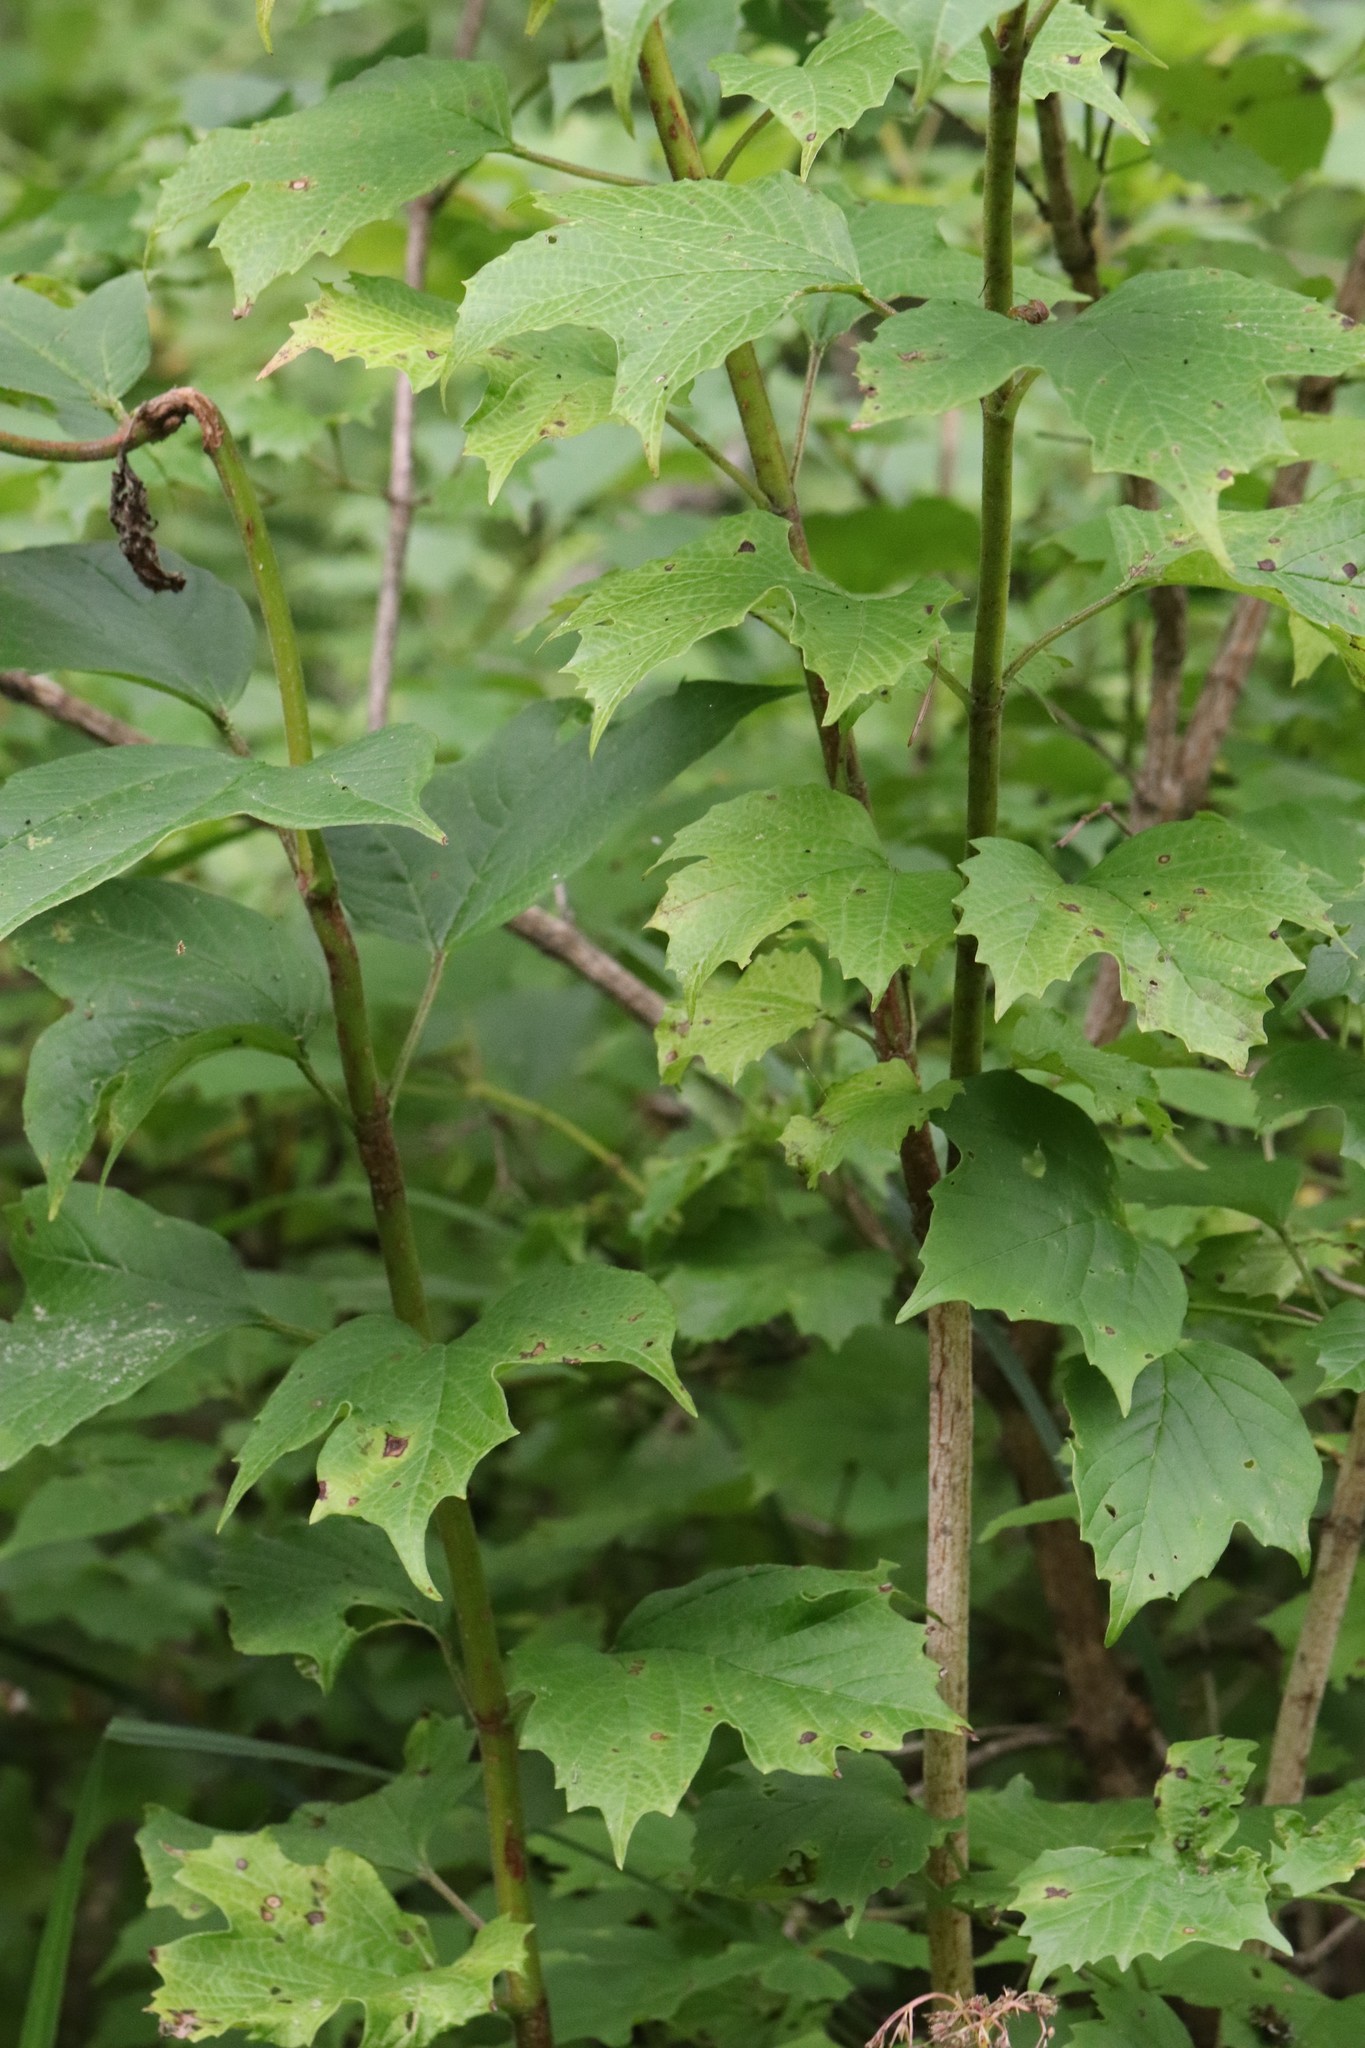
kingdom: Plantae
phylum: Tracheophyta
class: Magnoliopsida
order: Dipsacales
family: Viburnaceae
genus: Viburnum
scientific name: Viburnum sargentii
